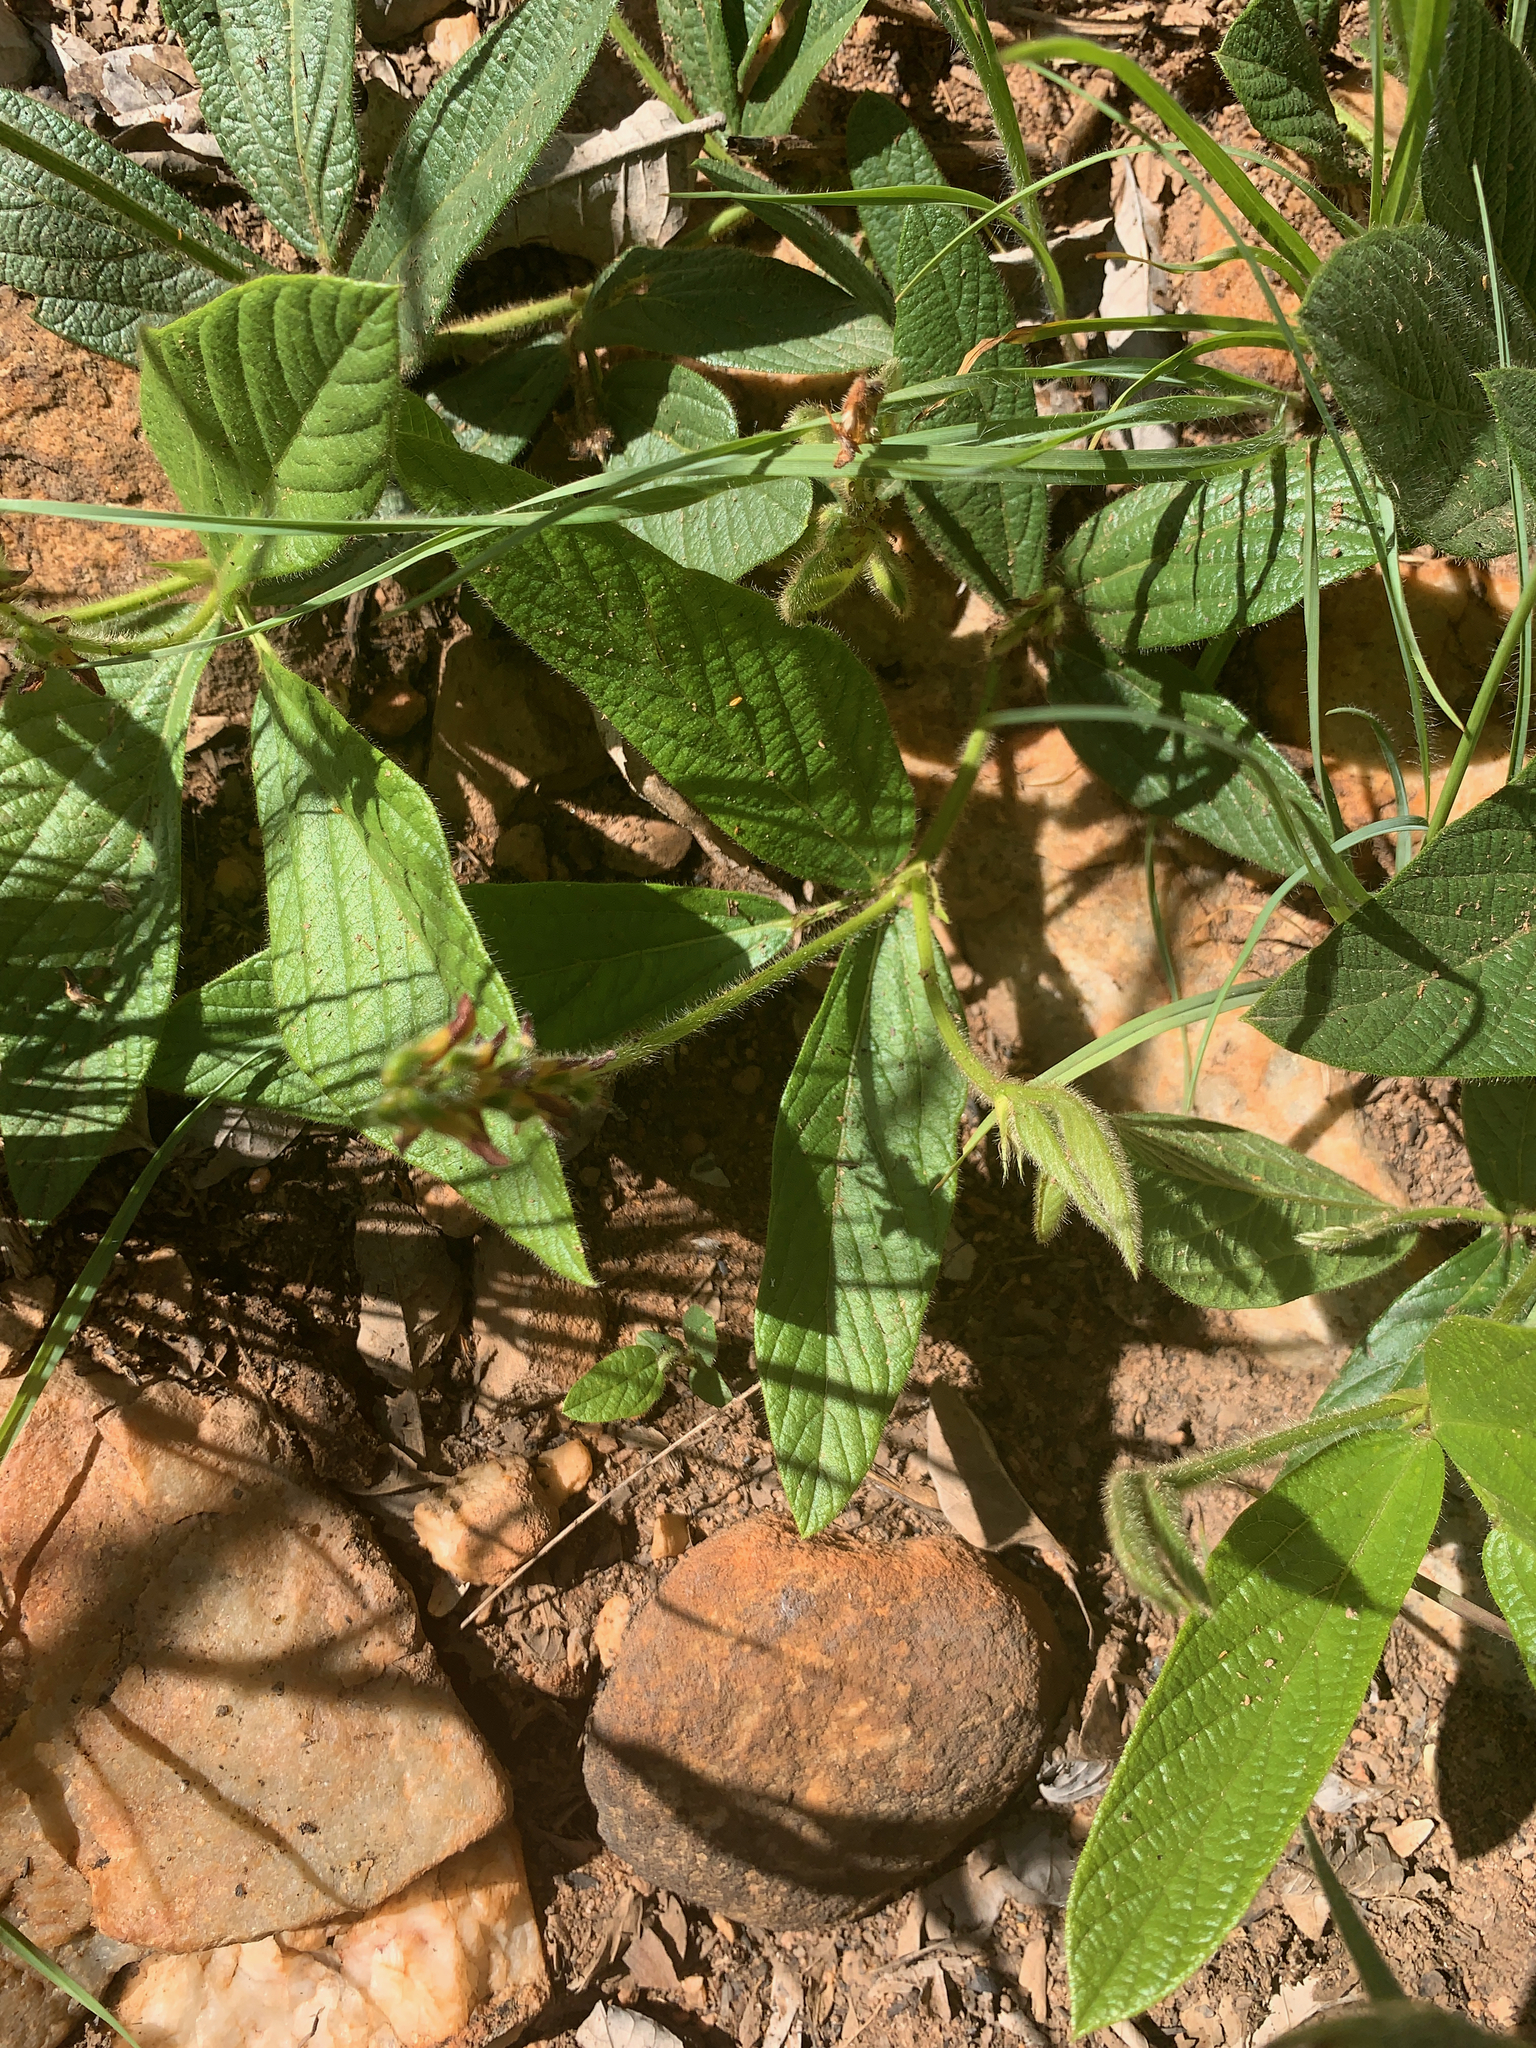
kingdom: Plantae
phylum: Tracheophyta
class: Magnoliopsida
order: Fabales
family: Fabaceae
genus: Eriosema
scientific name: Eriosema cordatum
